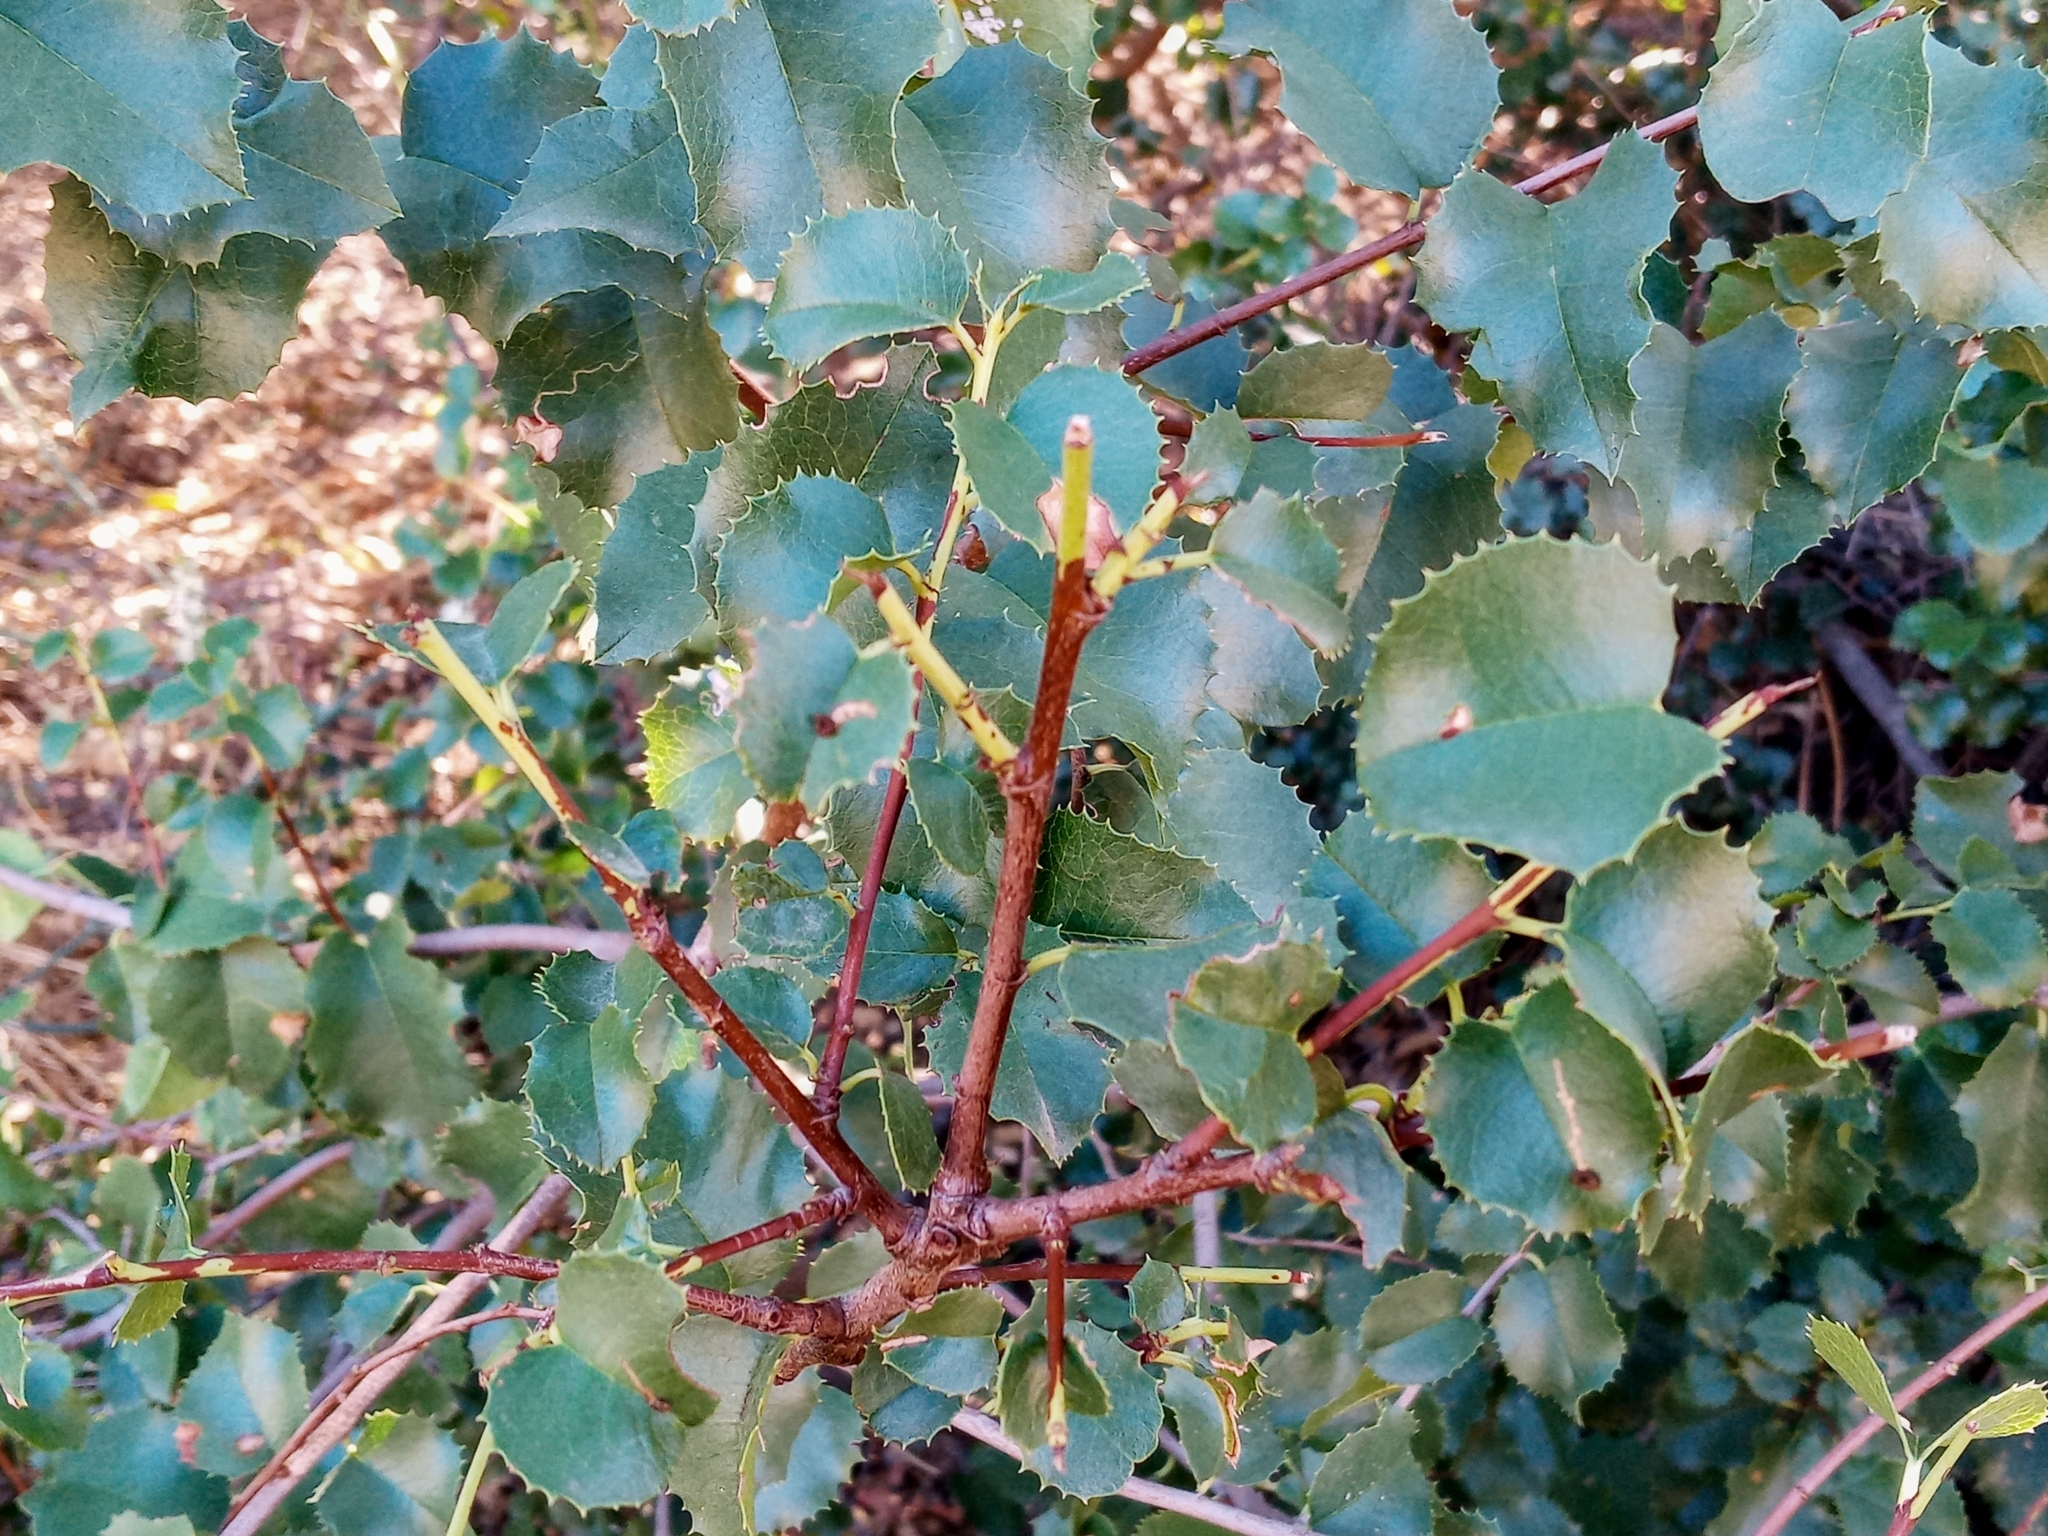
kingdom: Plantae
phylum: Tracheophyta
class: Magnoliopsida
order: Rosales
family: Rosaceae
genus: Prunus
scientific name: Prunus ilicifolia
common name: Hollyleaf cherry
